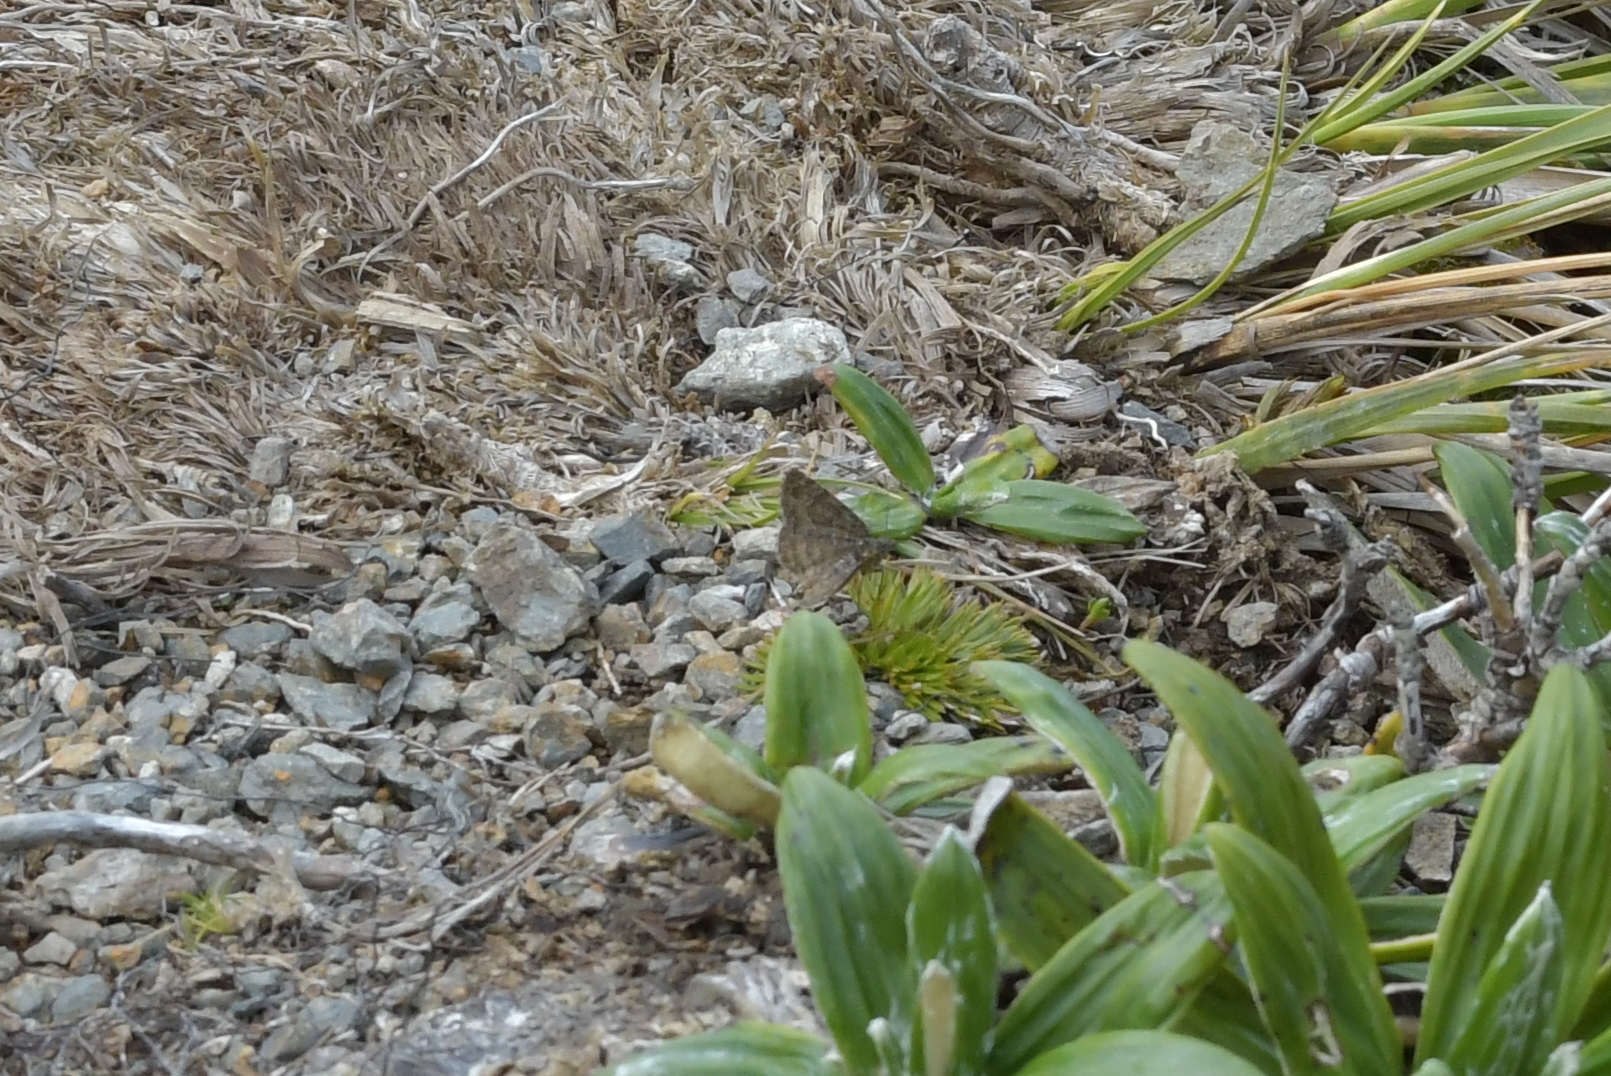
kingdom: Animalia
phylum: Arthropoda
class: Insecta
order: Lepidoptera
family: Geometridae
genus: Dasyuris
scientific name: Dasyuris anceps
